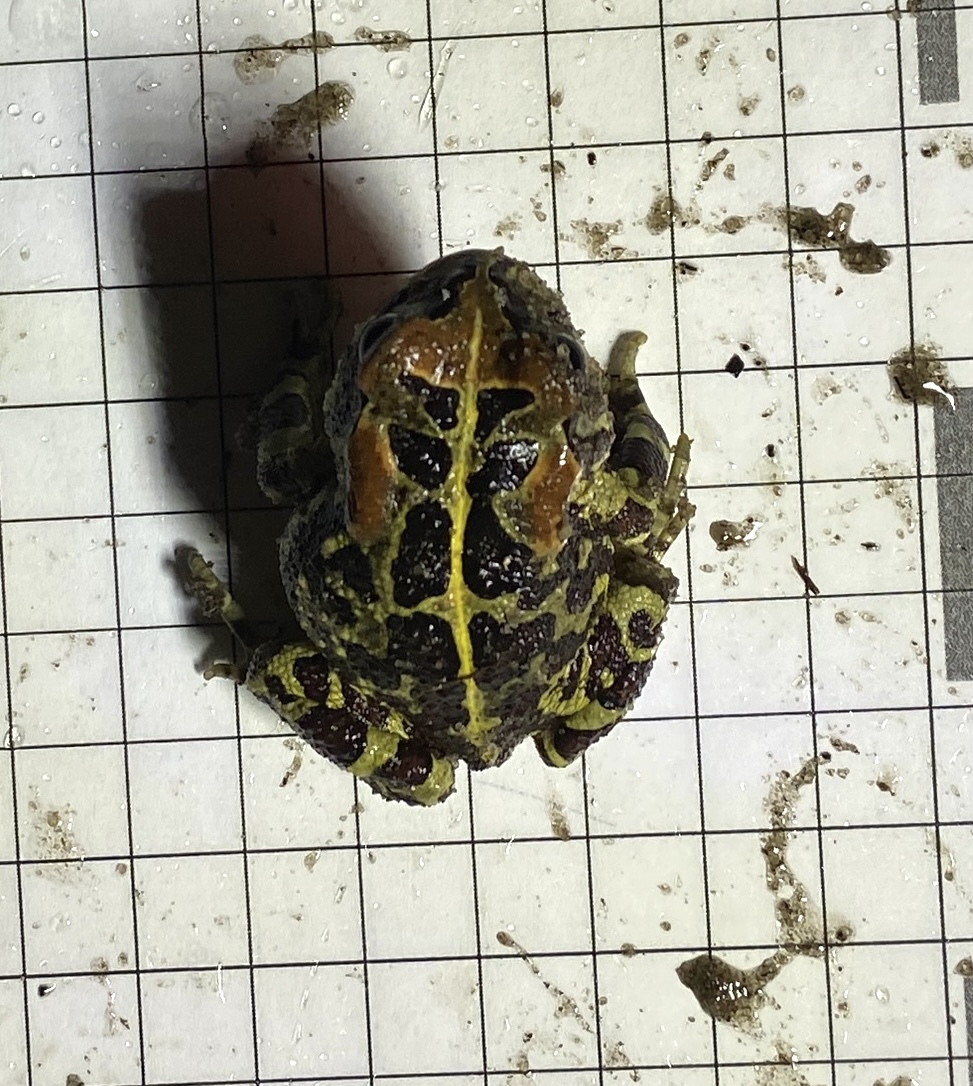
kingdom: Animalia
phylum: Chordata
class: Amphibia
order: Anura
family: Bufonidae
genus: Sclerophrys
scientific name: Sclerophrys pantherina
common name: Panther toad
